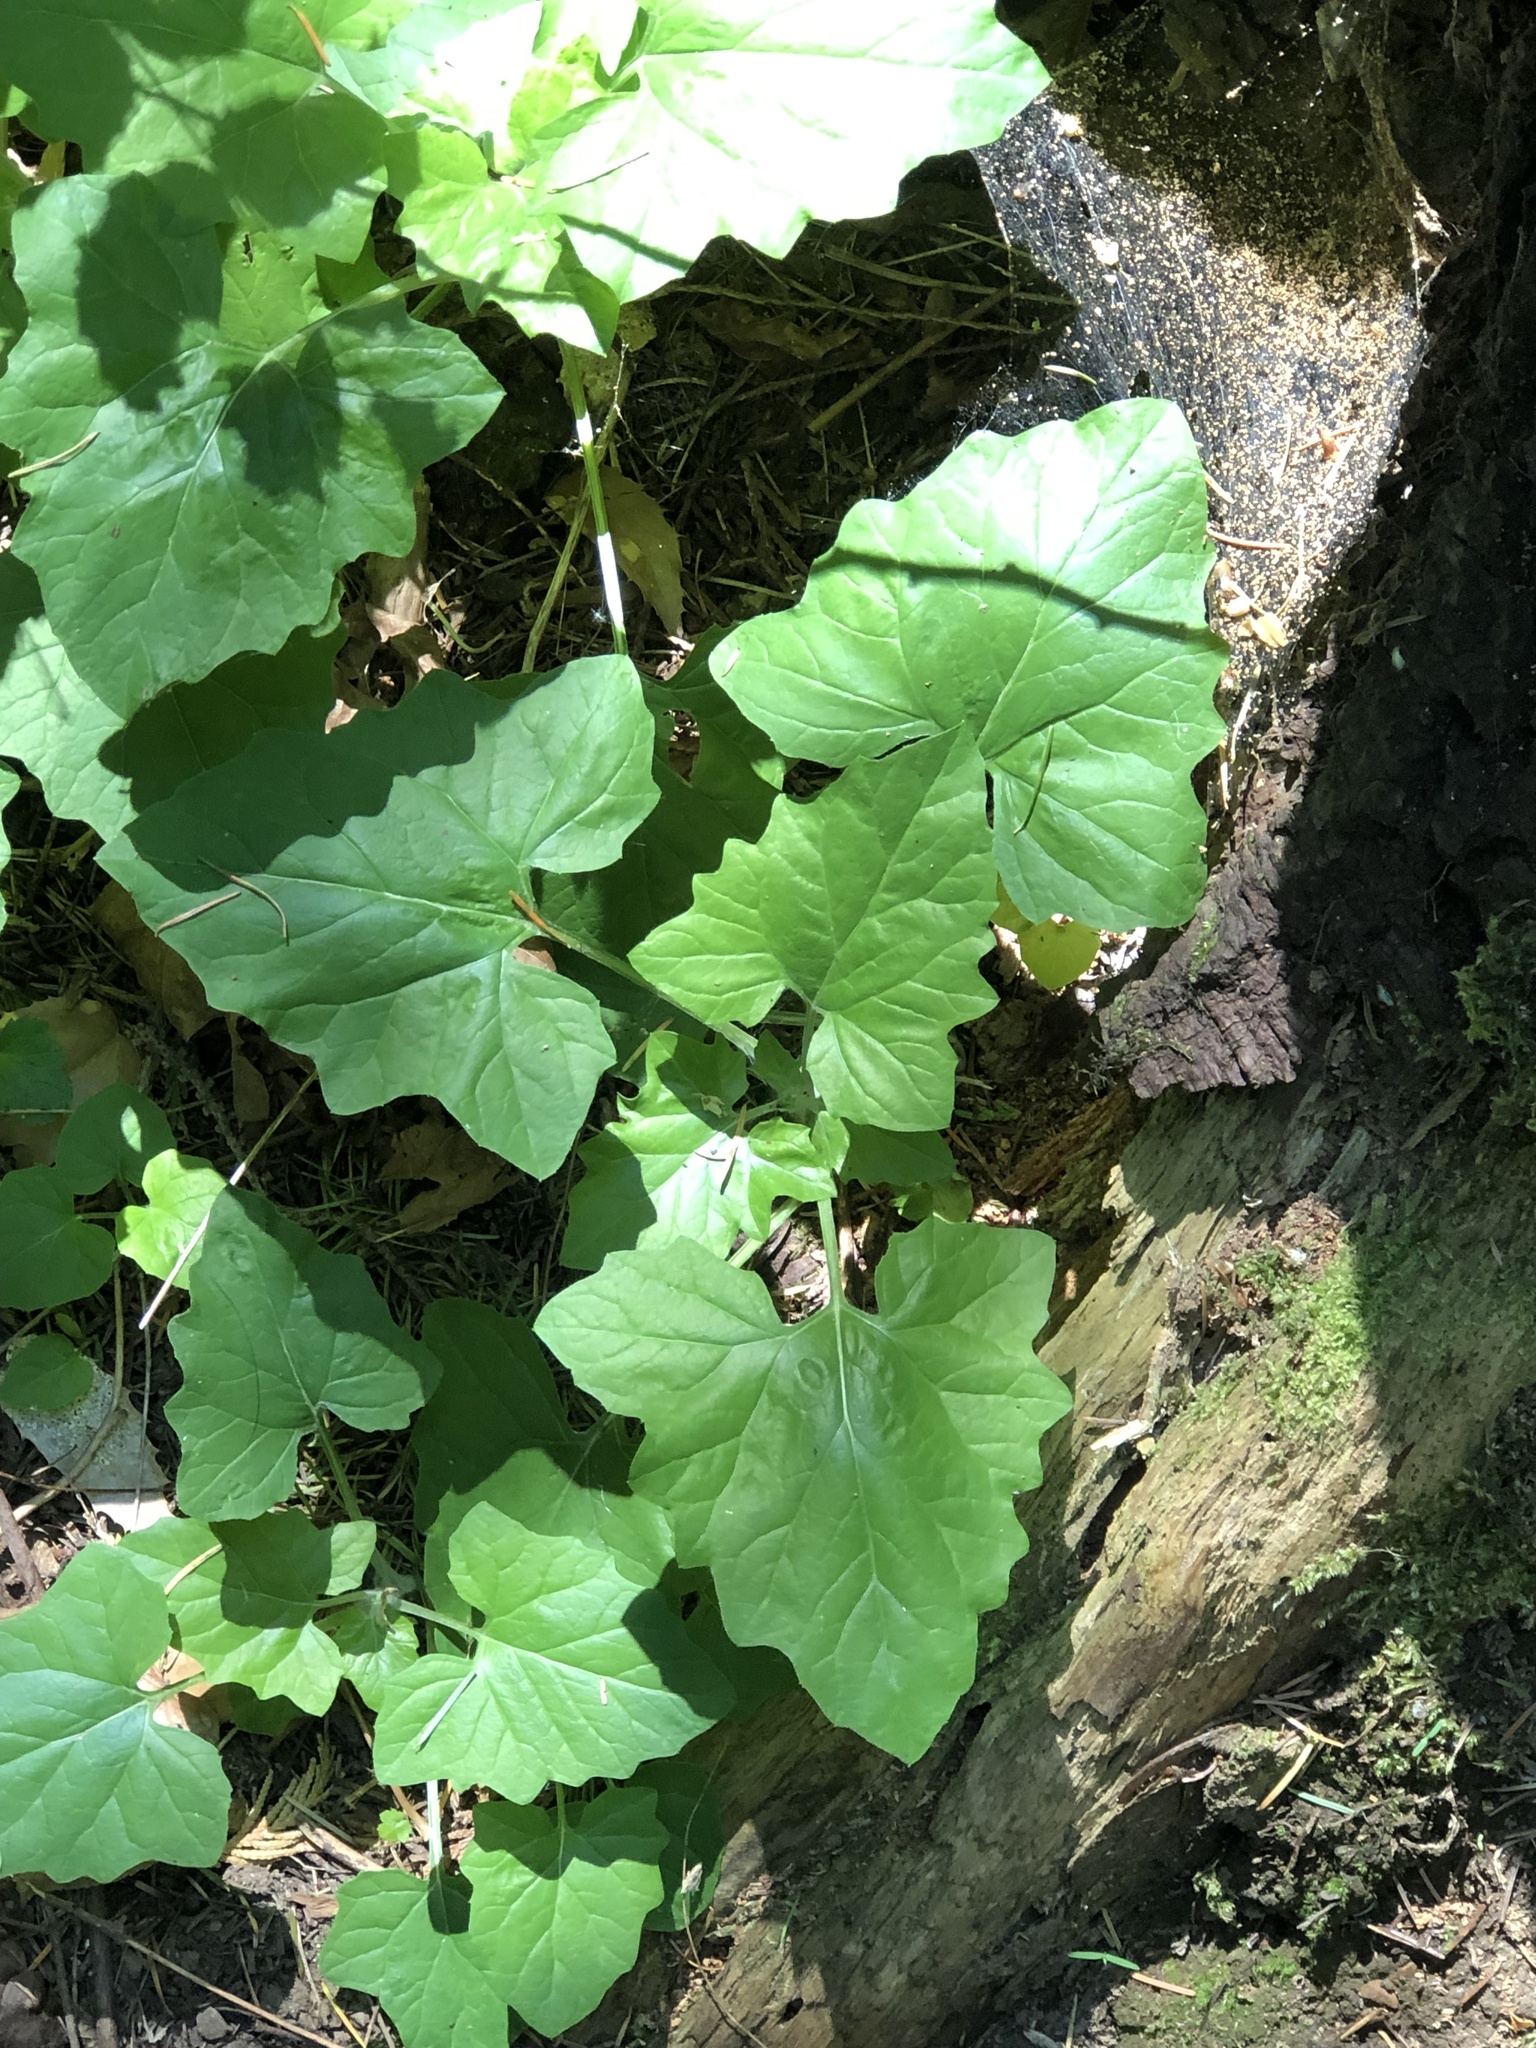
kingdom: Plantae
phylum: Tracheophyta
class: Magnoliopsida
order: Asterales
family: Asteraceae
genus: Adenocaulon
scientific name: Adenocaulon bicolor
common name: Trailplant
